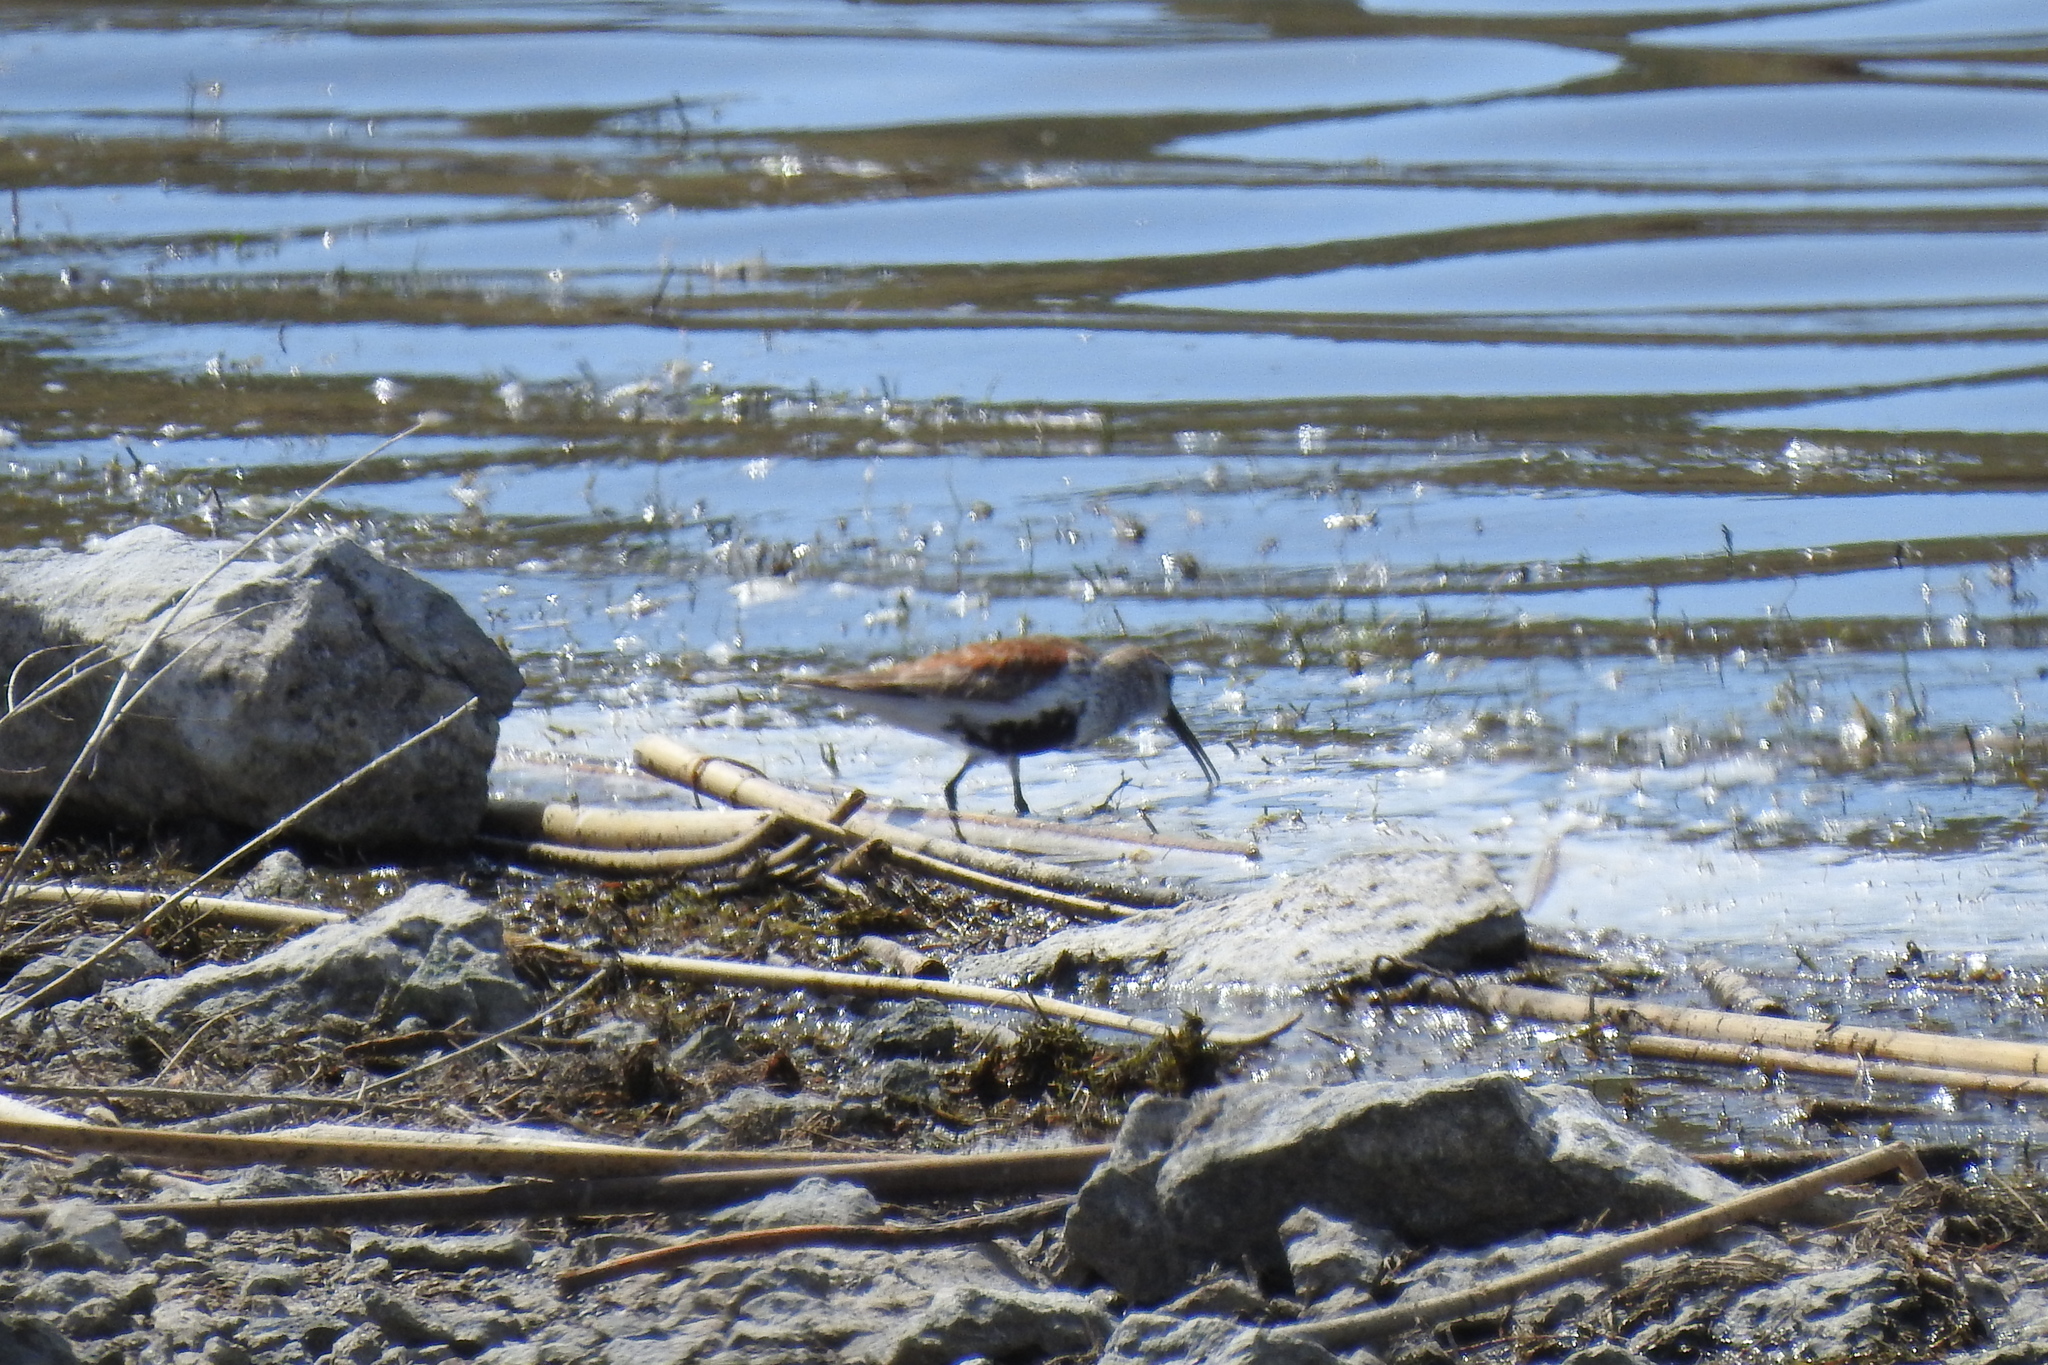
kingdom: Animalia
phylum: Chordata
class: Aves
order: Charadriiformes
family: Scolopacidae
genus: Calidris
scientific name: Calidris alpina
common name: Dunlin
